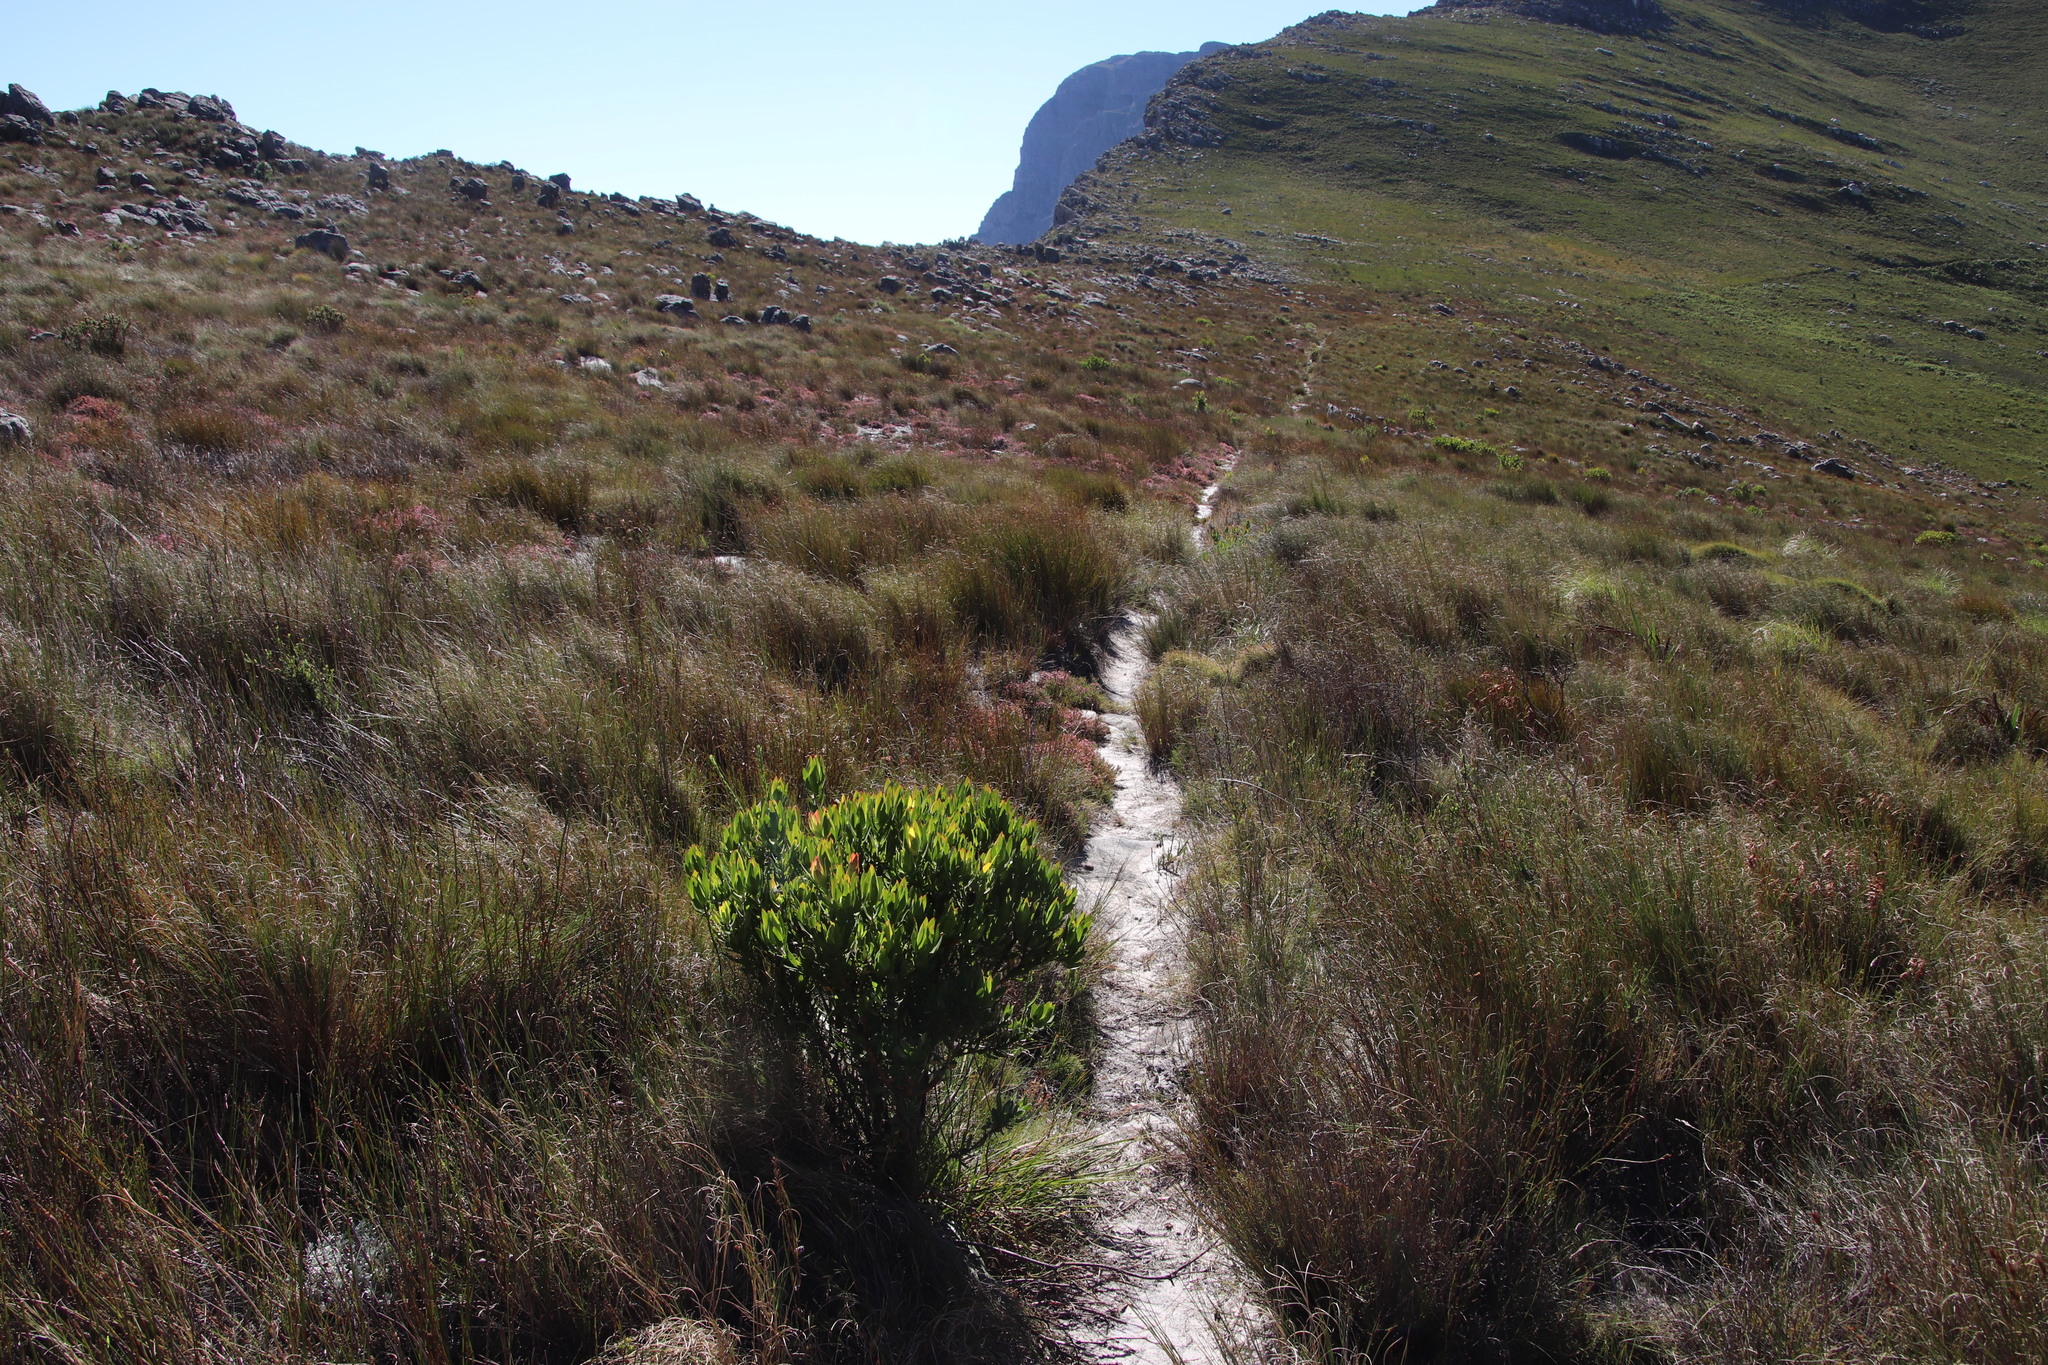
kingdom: Plantae
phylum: Tracheophyta
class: Magnoliopsida
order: Proteales
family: Proteaceae
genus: Leucadendron
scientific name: Leucadendron gandogeri
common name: Broad-leaf conebush
